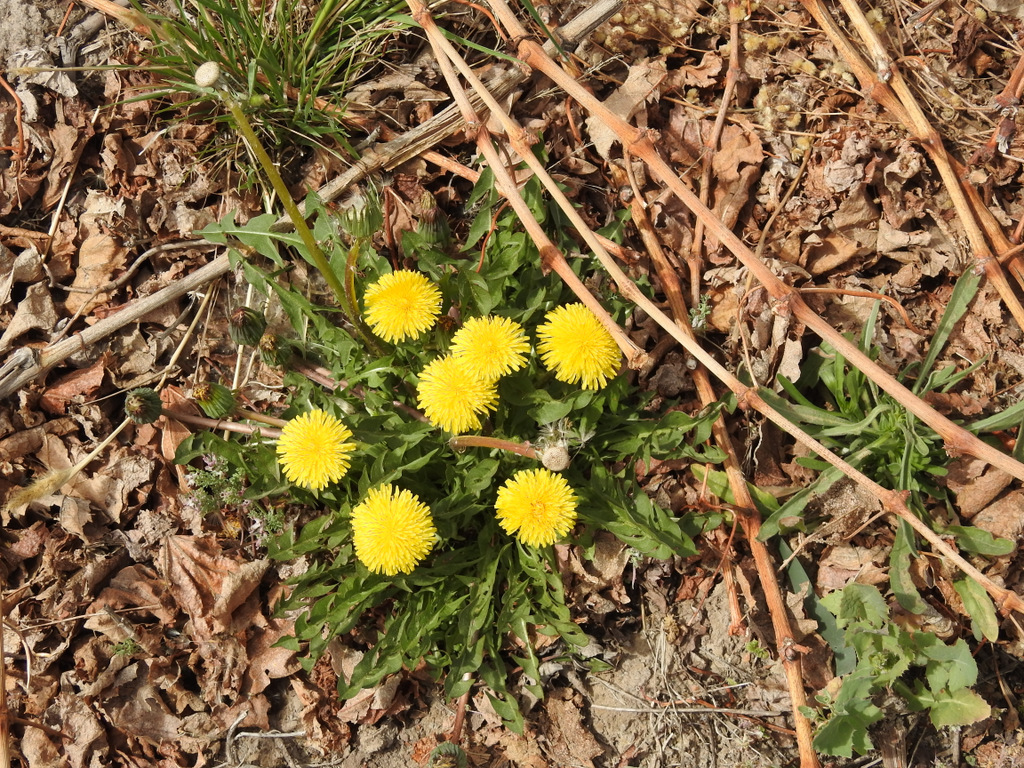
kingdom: Plantae
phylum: Tracheophyta
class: Magnoliopsida
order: Asterales
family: Asteraceae
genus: Taraxacum
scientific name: Taraxacum officinale
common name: Common dandelion
